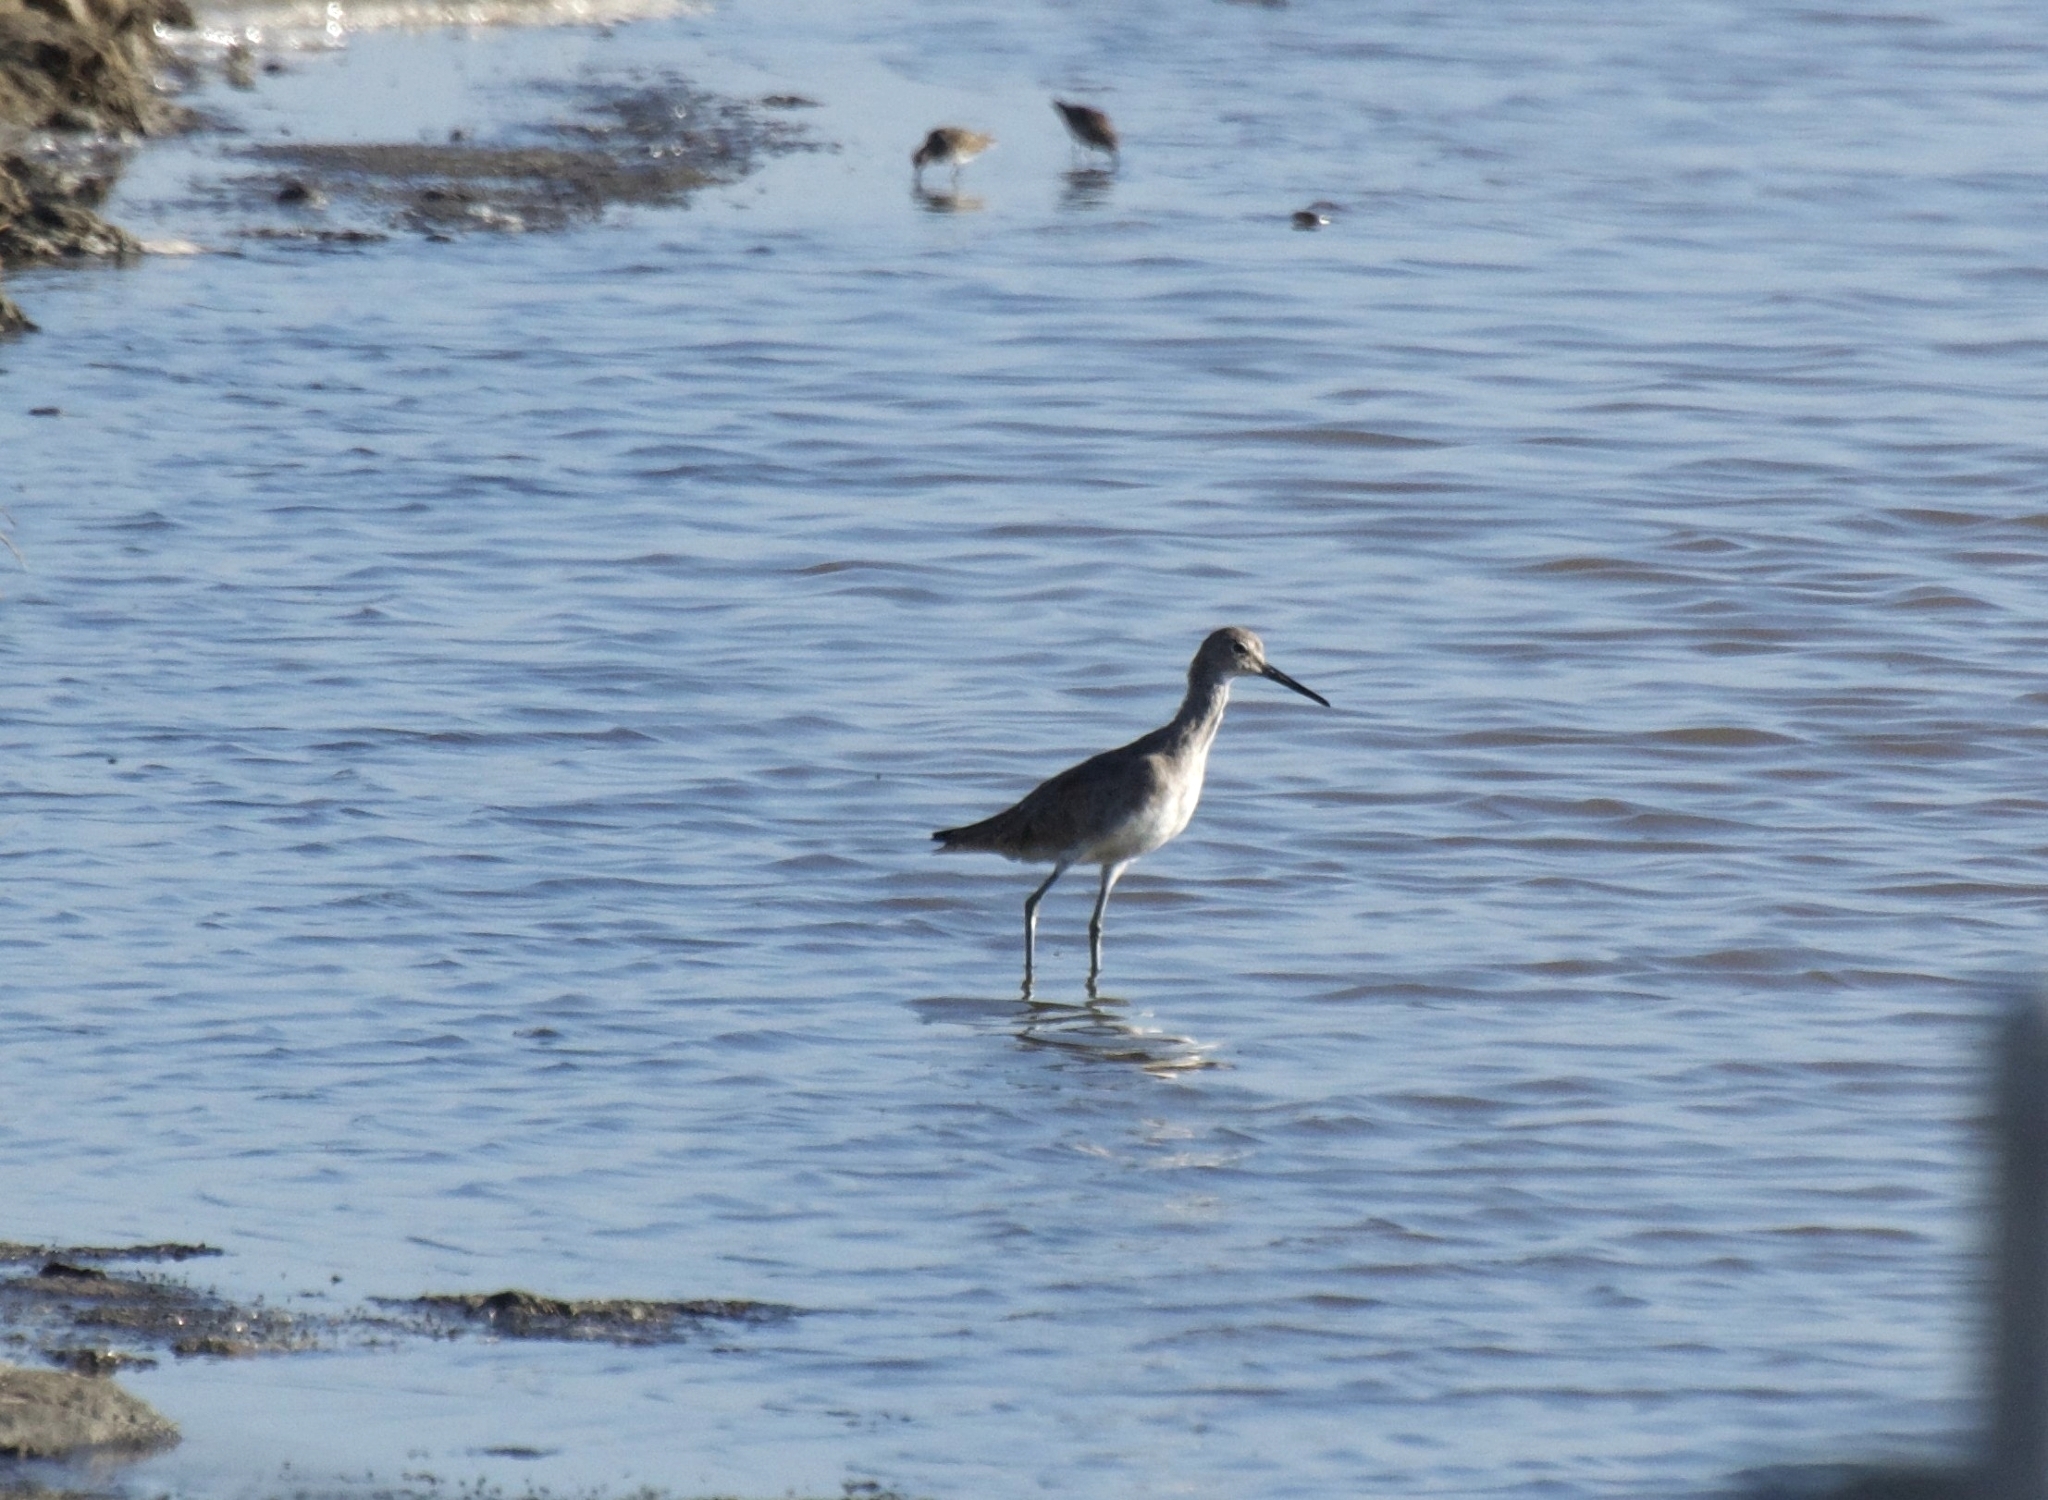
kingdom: Animalia
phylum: Chordata
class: Aves
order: Charadriiformes
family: Scolopacidae
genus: Tringa
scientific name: Tringa semipalmata
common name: Willet
